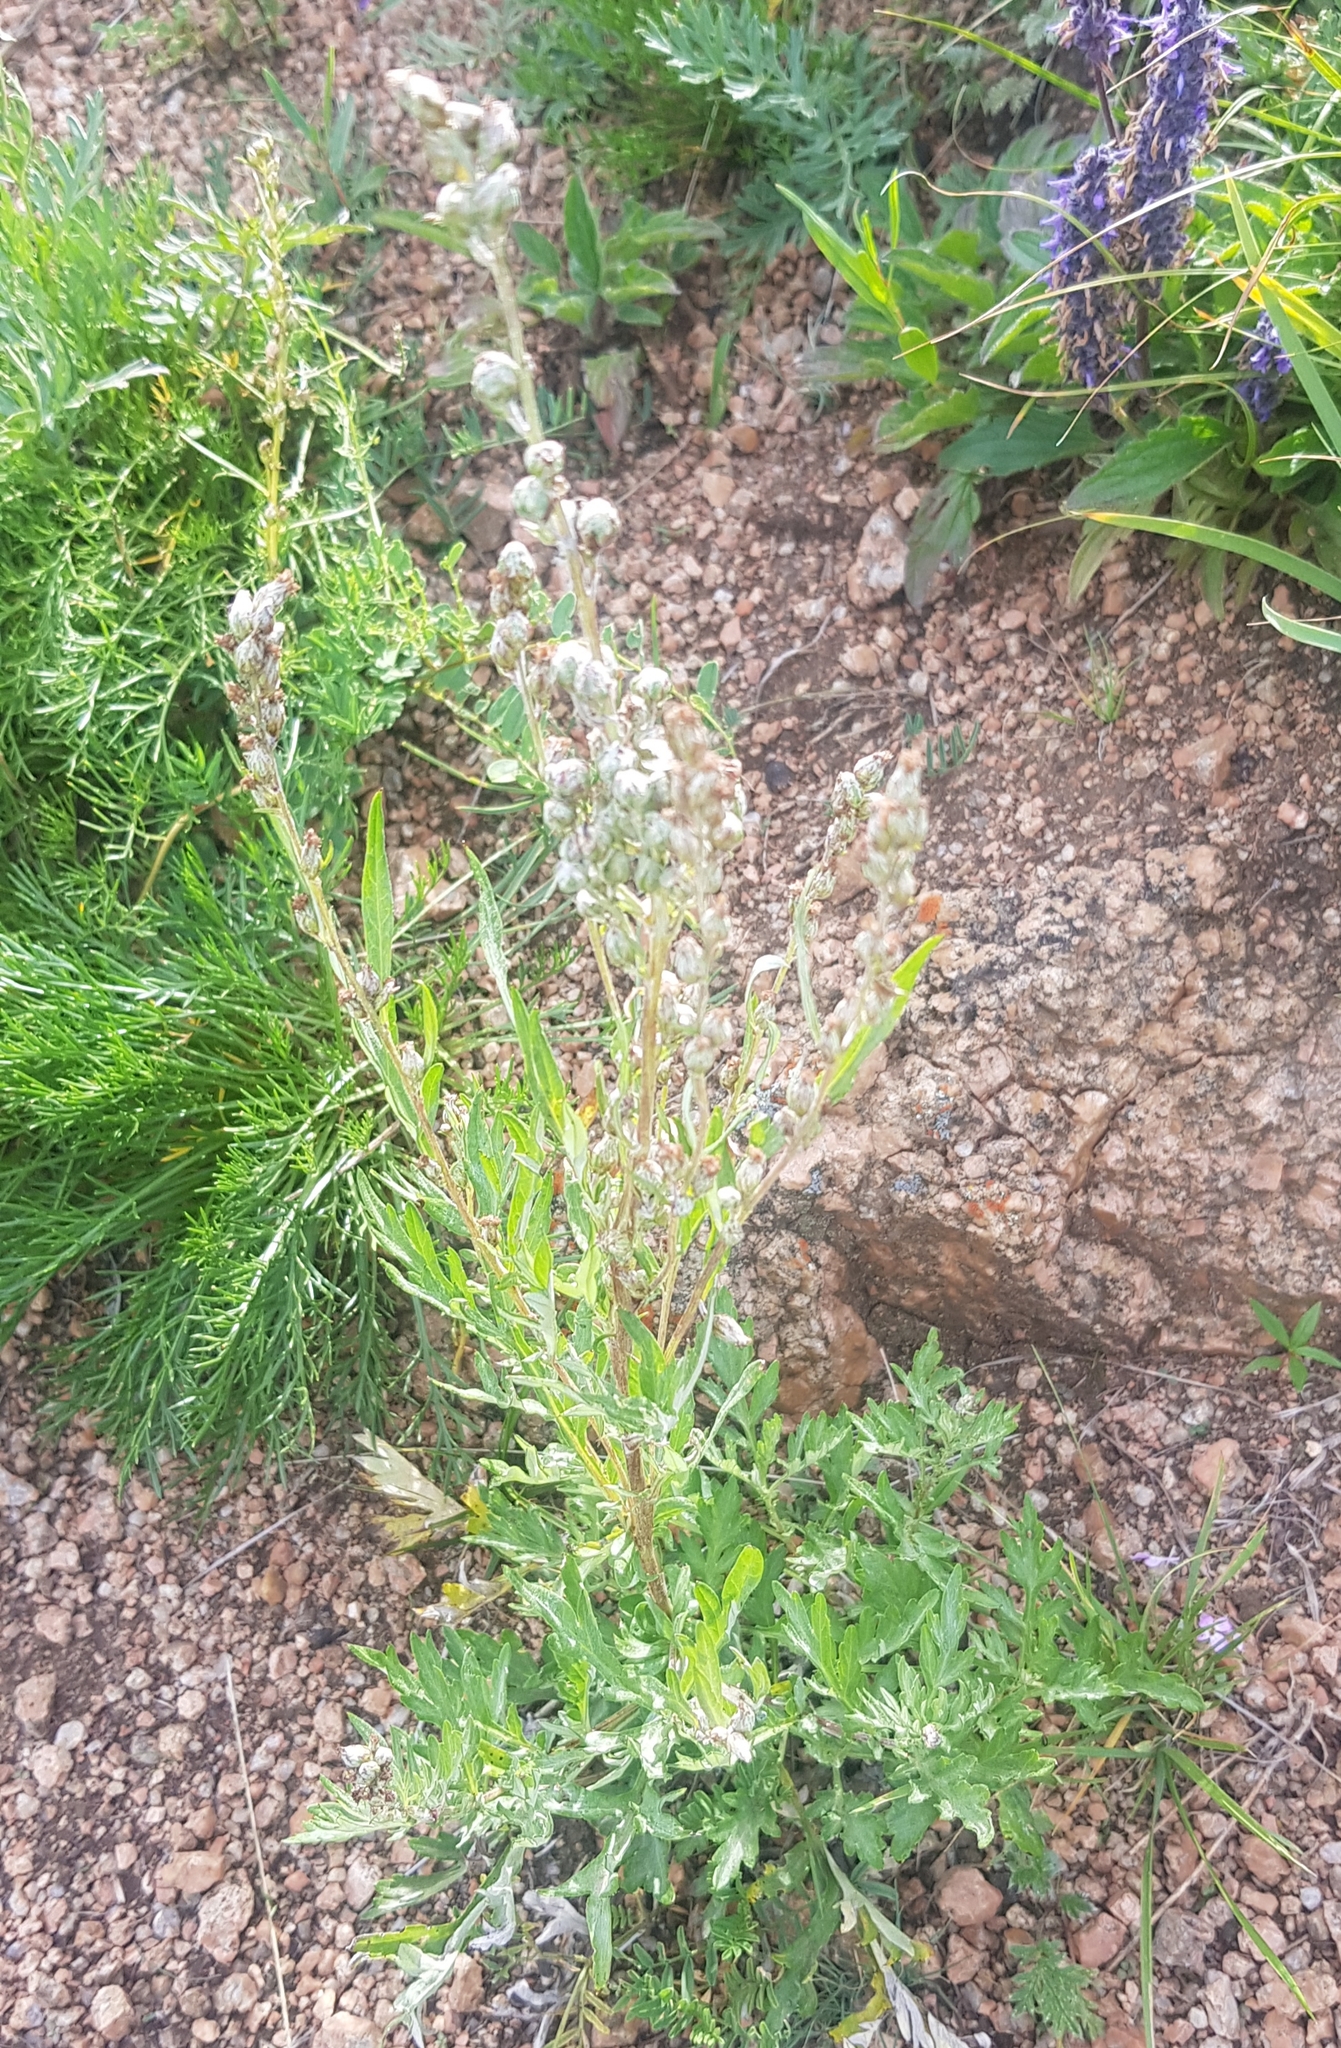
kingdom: Plantae
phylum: Tracheophyta
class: Magnoliopsida
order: Asterales
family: Asteraceae
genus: Artemisia
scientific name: Artemisia vulgaris
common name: Mugwort
